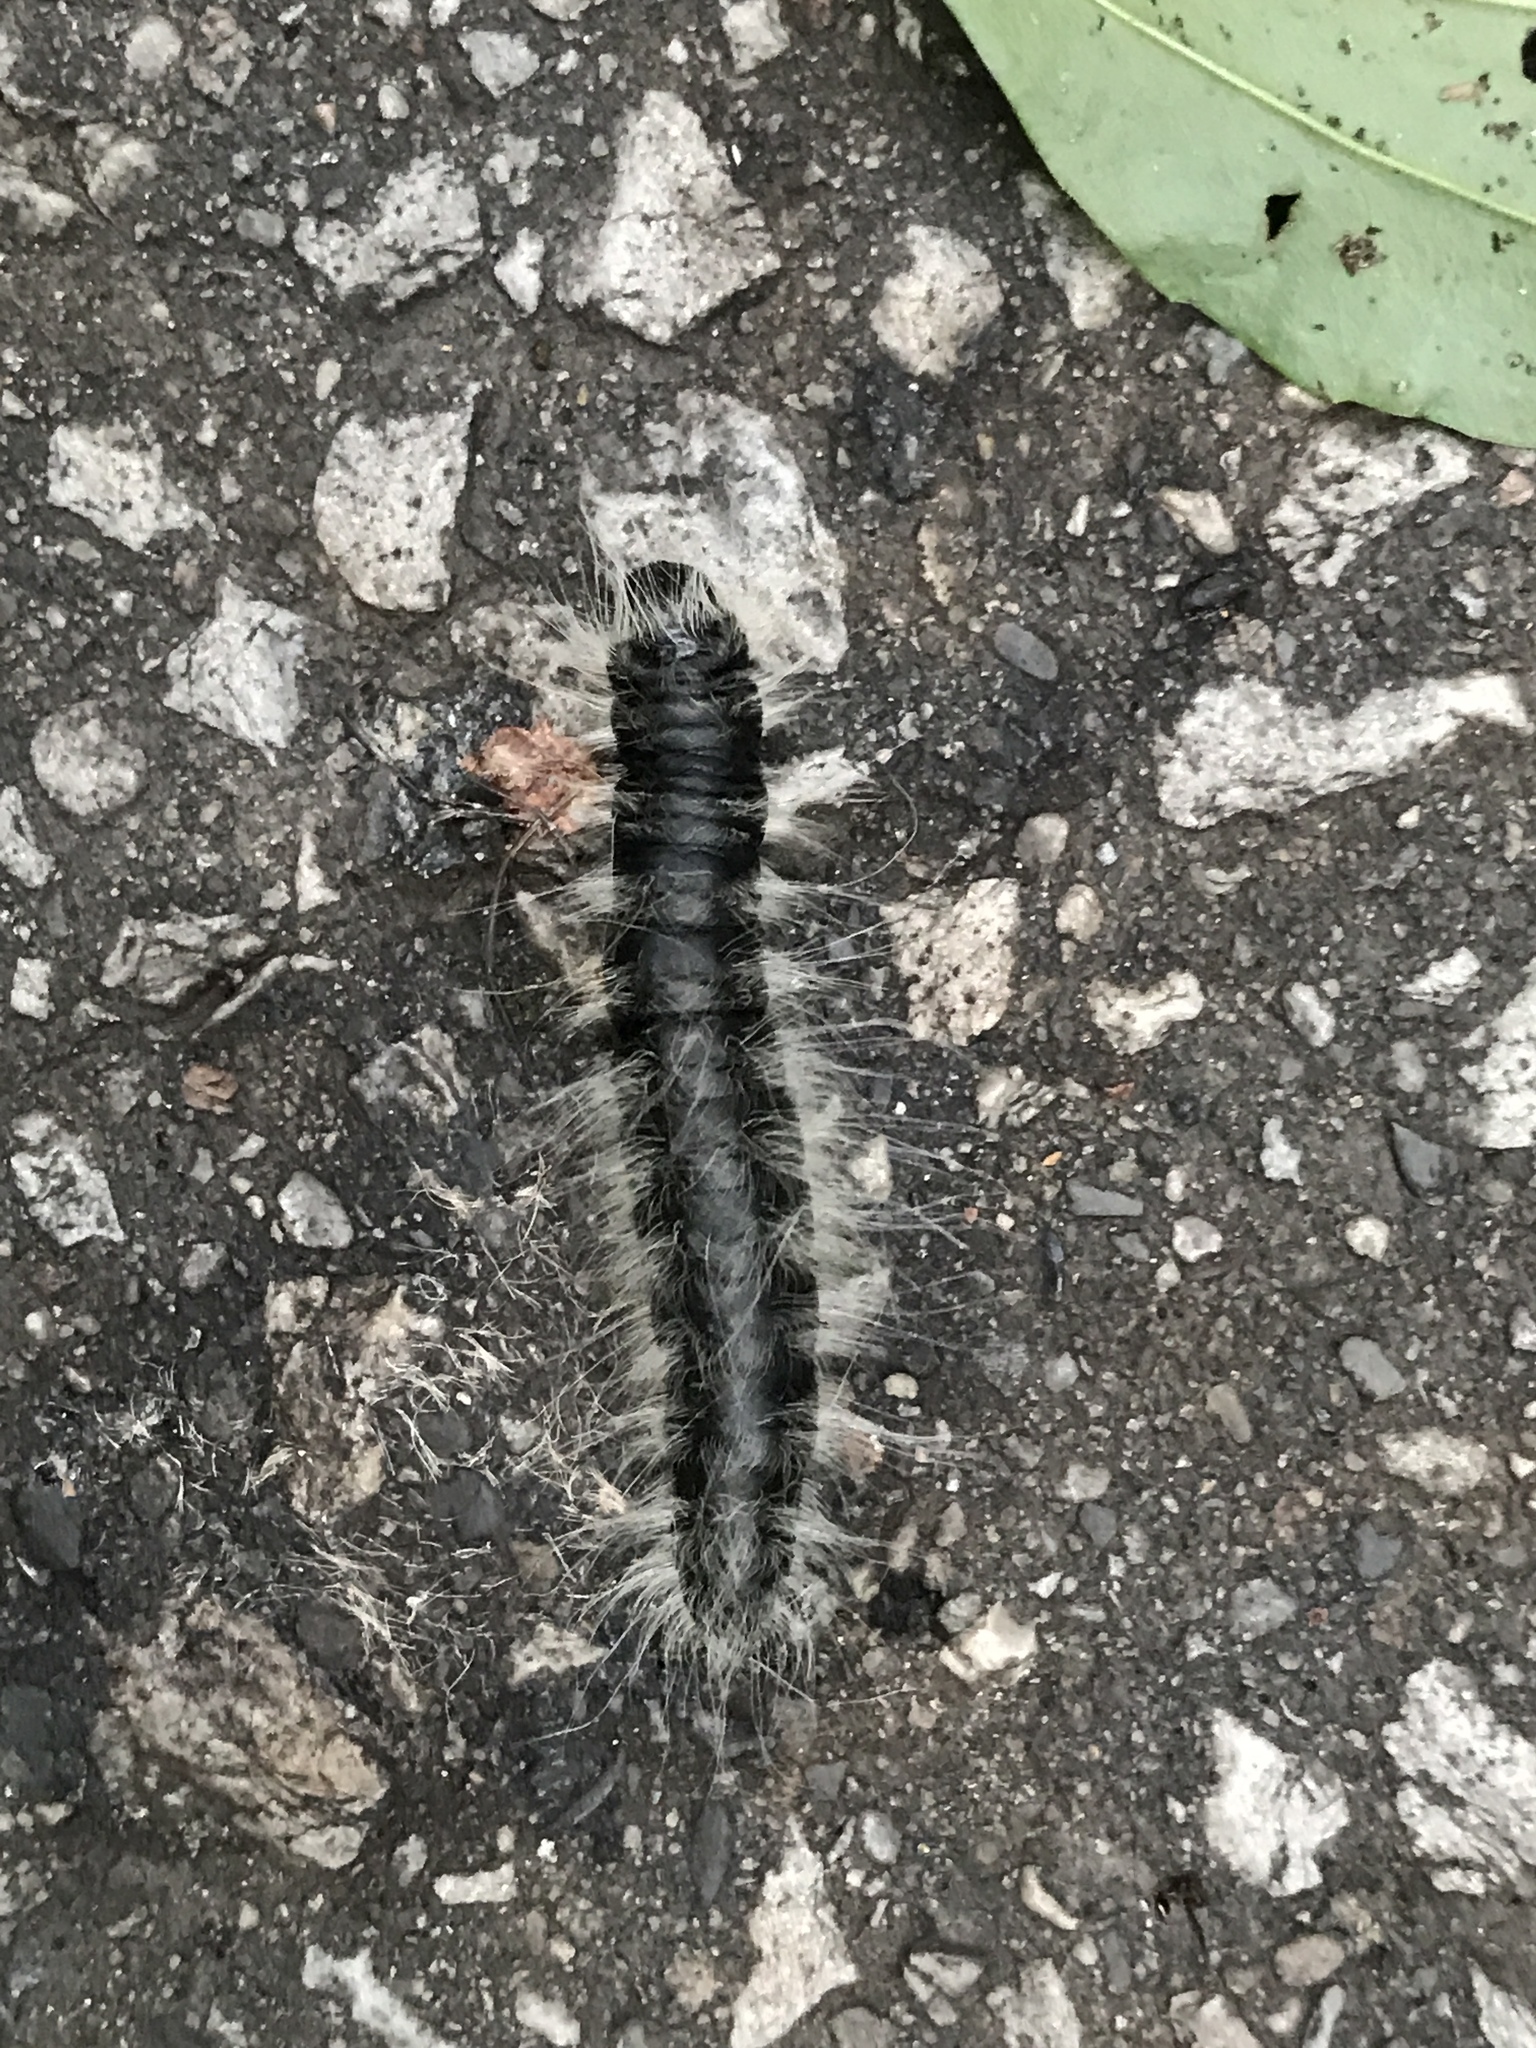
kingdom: Animalia
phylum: Arthropoda
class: Insecta
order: Lepidoptera
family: Notodontidae
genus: Datana
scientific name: Datana integerrima
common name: Walnut caterpillar
